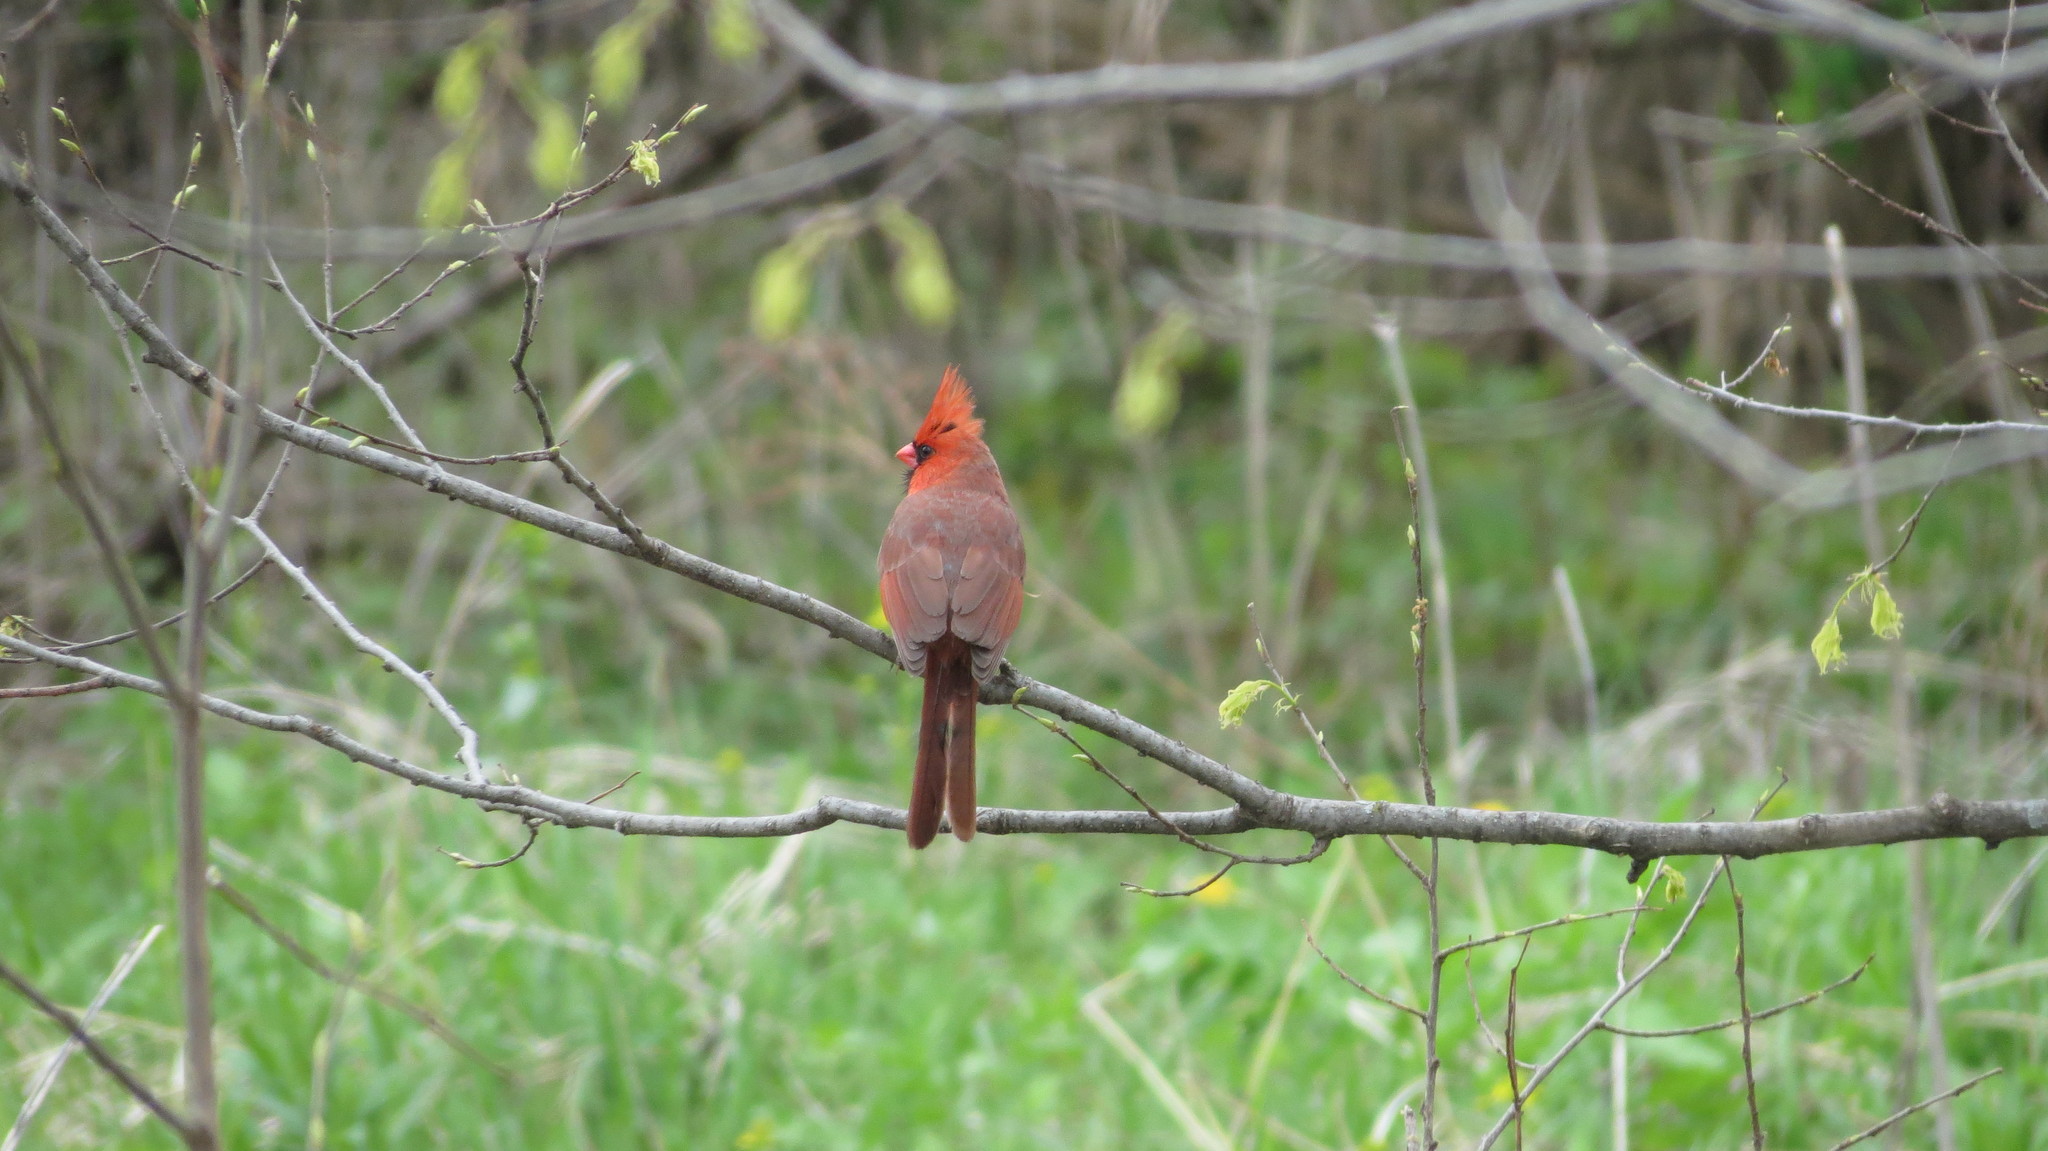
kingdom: Animalia
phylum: Chordata
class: Aves
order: Passeriformes
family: Cardinalidae
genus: Cardinalis
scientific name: Cardinalis cardinalis
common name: Northern cardinal
